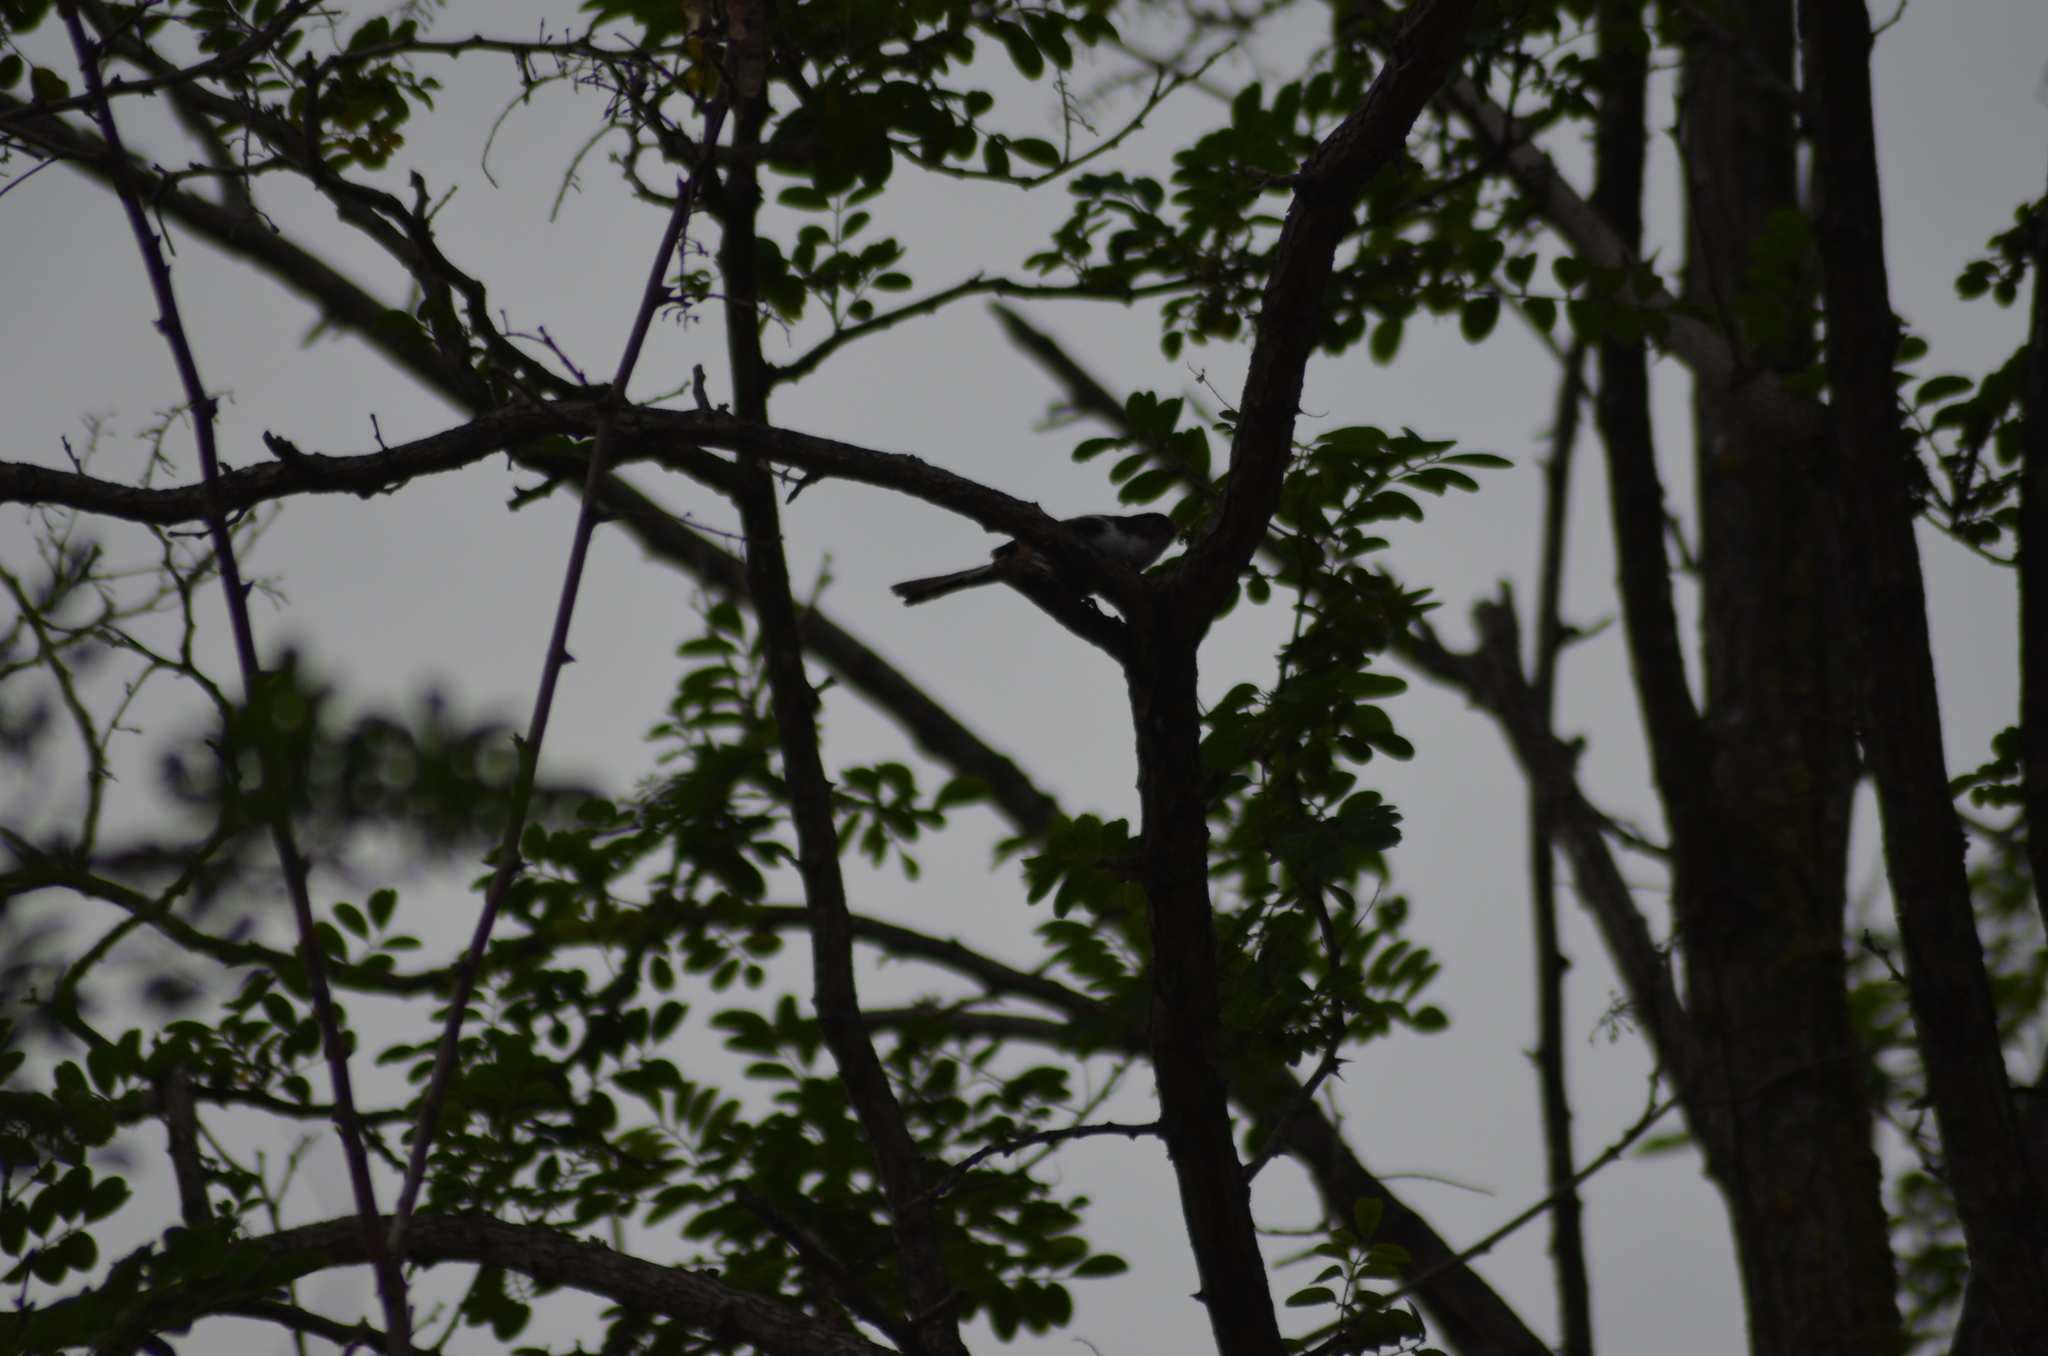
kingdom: Animalia
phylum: Chordata
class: Aves
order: Passeriformes
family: Aegithalidae
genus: Aegithalos
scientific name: Aegithalos caudatus
